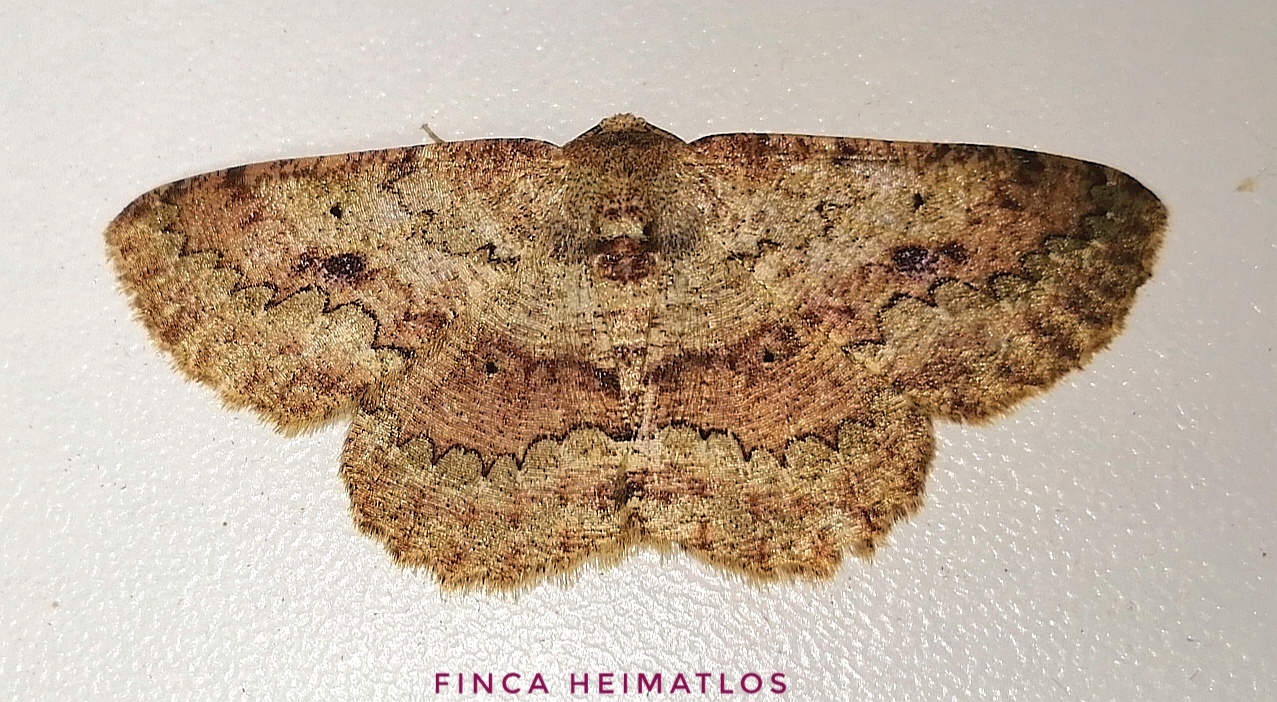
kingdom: Animalia
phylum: Arthropoda
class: Insecta
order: Lepidoptera
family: Geometridae
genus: Sabulodes
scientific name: Sabulodes boarmidaria
